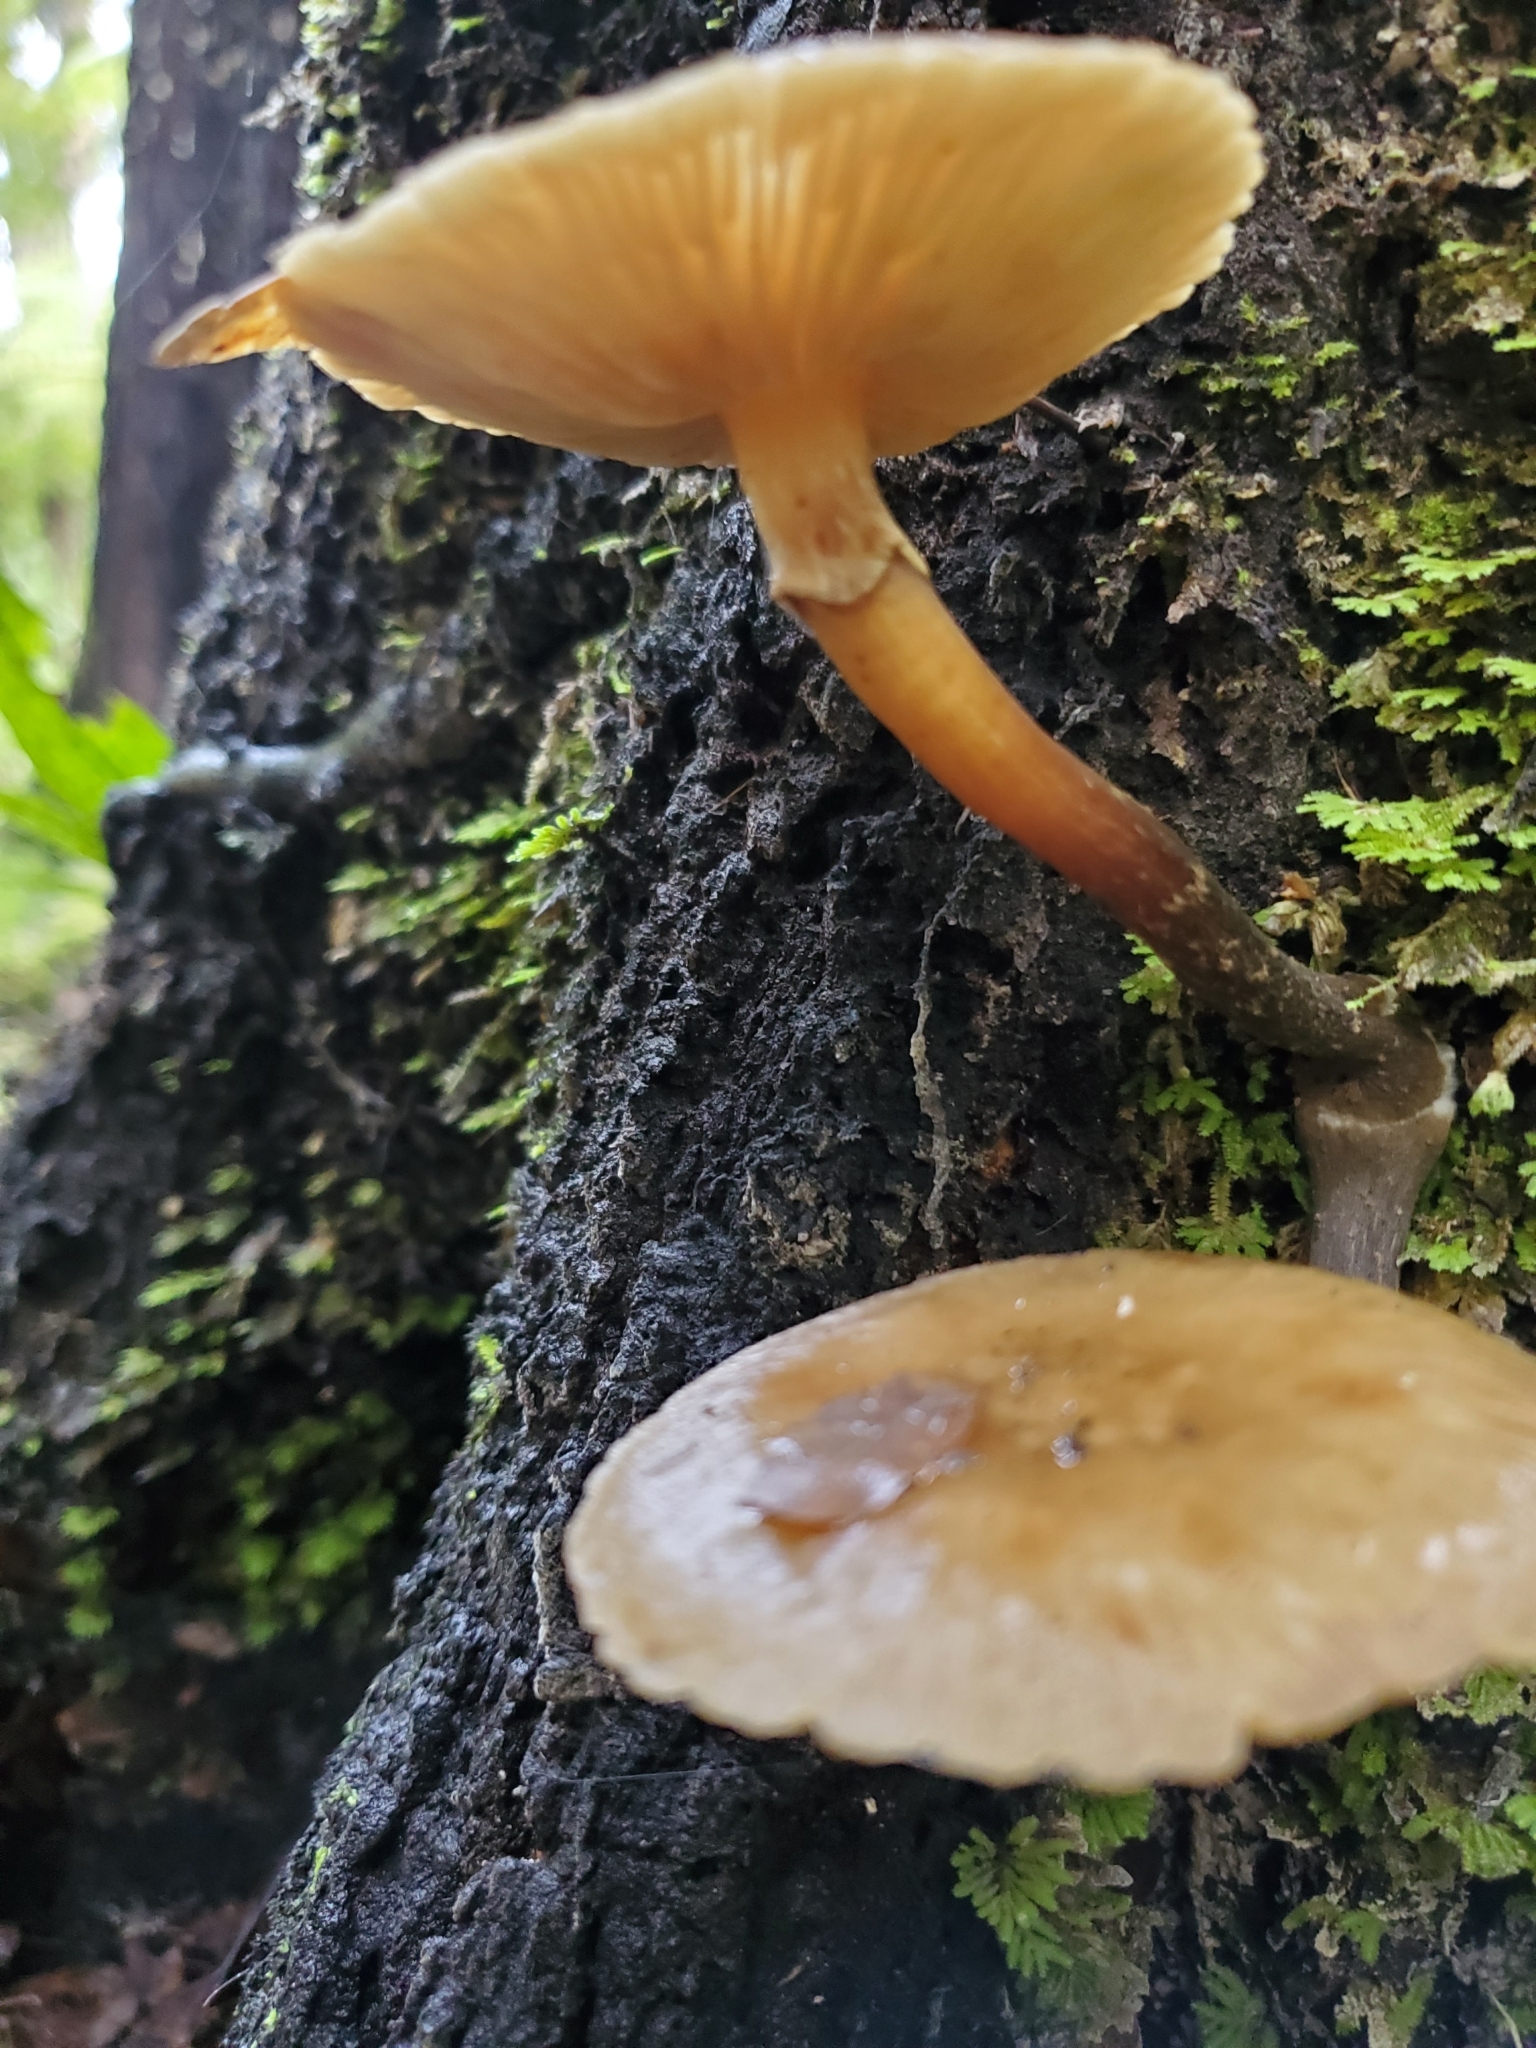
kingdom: Fungi
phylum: Basidiomycota
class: Agaricomycetes
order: Agaricales
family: Physalacriaceae
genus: Armillaria
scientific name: Armillaria novae-zelandiae
